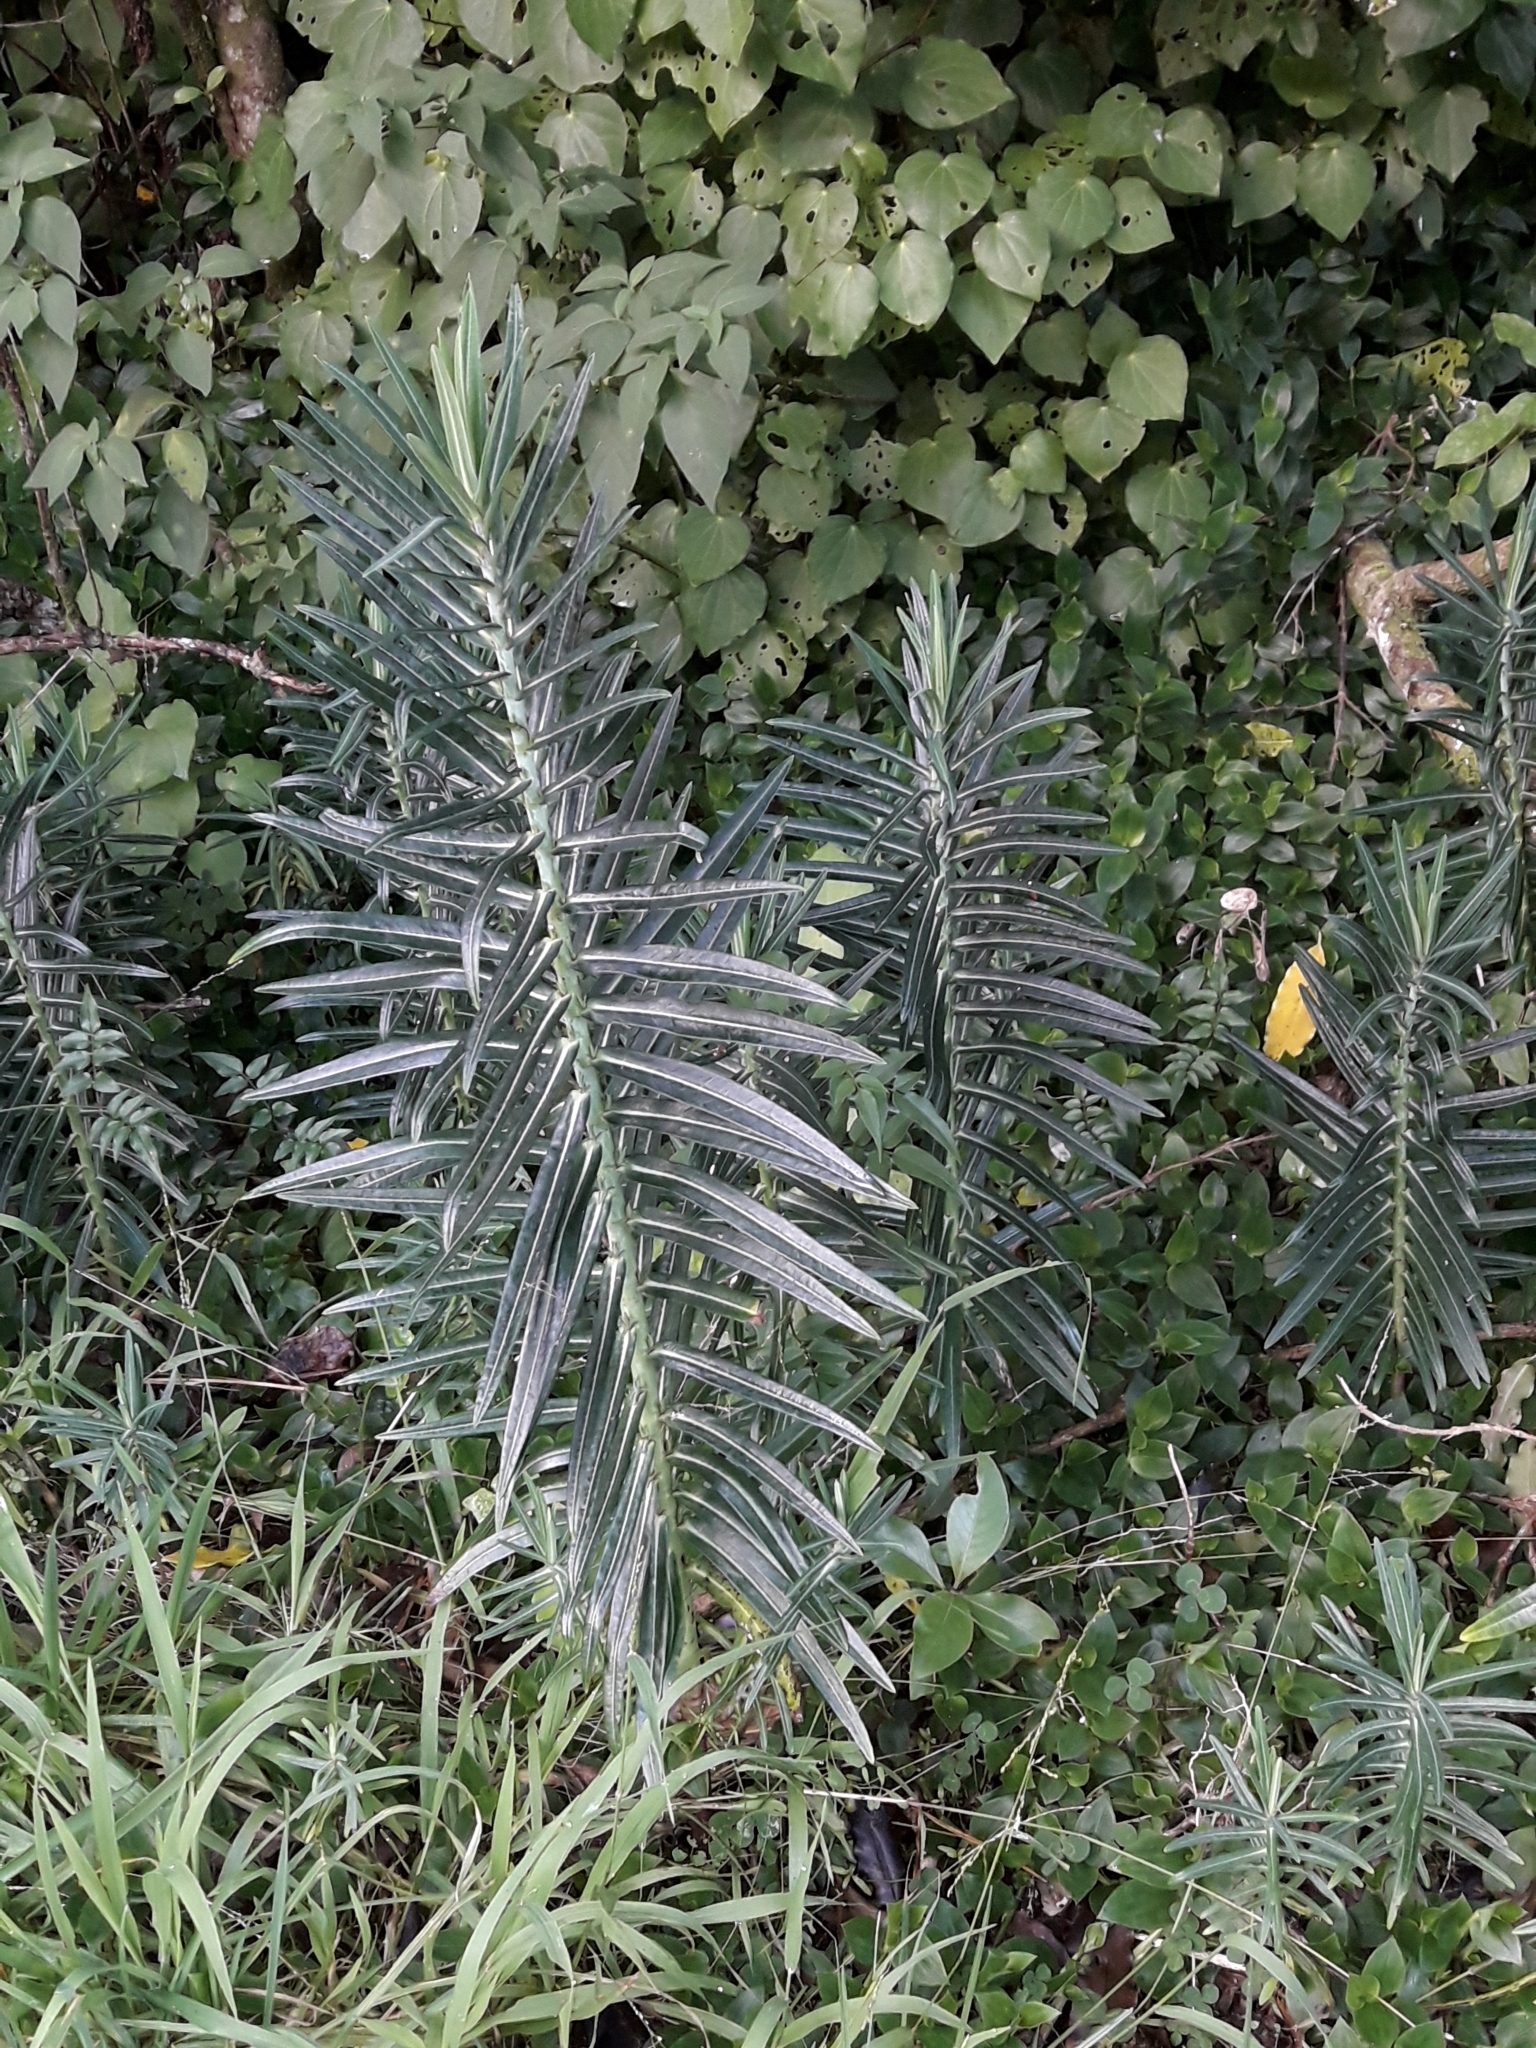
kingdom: Plantae
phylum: Tracheophyta
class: Magnoliopsida
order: Malpighiales
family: Euphorbiaceae
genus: Euphorbia
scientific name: Euphorbia lathyris
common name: Caper spurge
